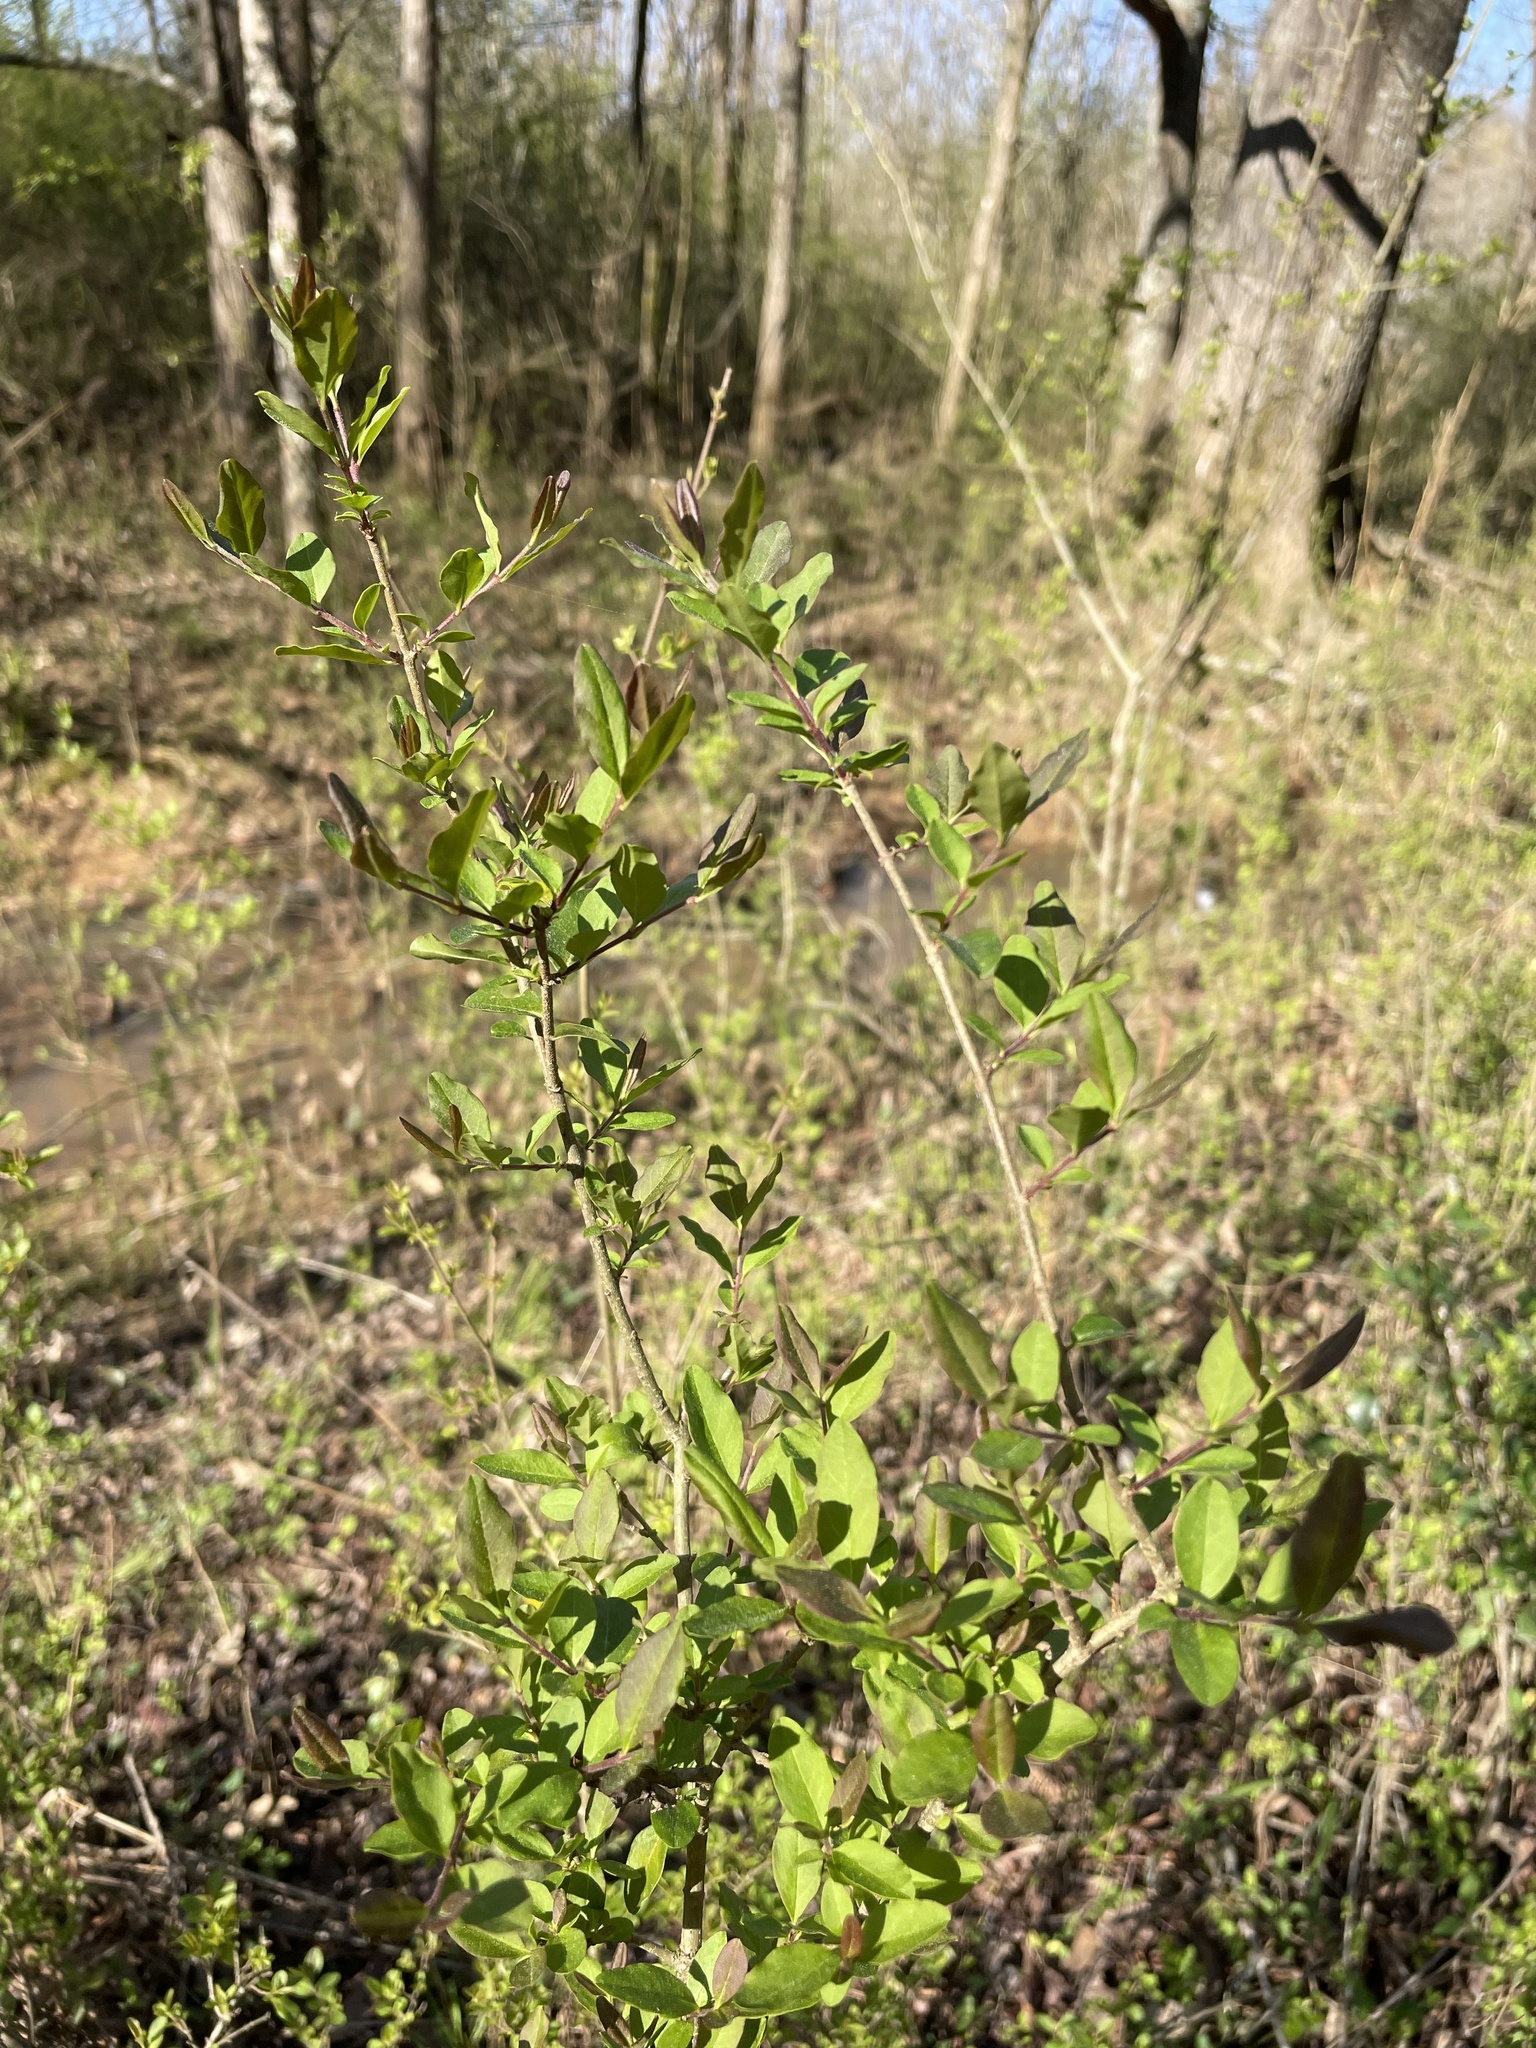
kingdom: Plantae
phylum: Tracheophyta
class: Magnoliopsida
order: Lamiales
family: Oleaceae
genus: Ligustrum
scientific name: Ligustrum sinense
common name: Chinese privet
